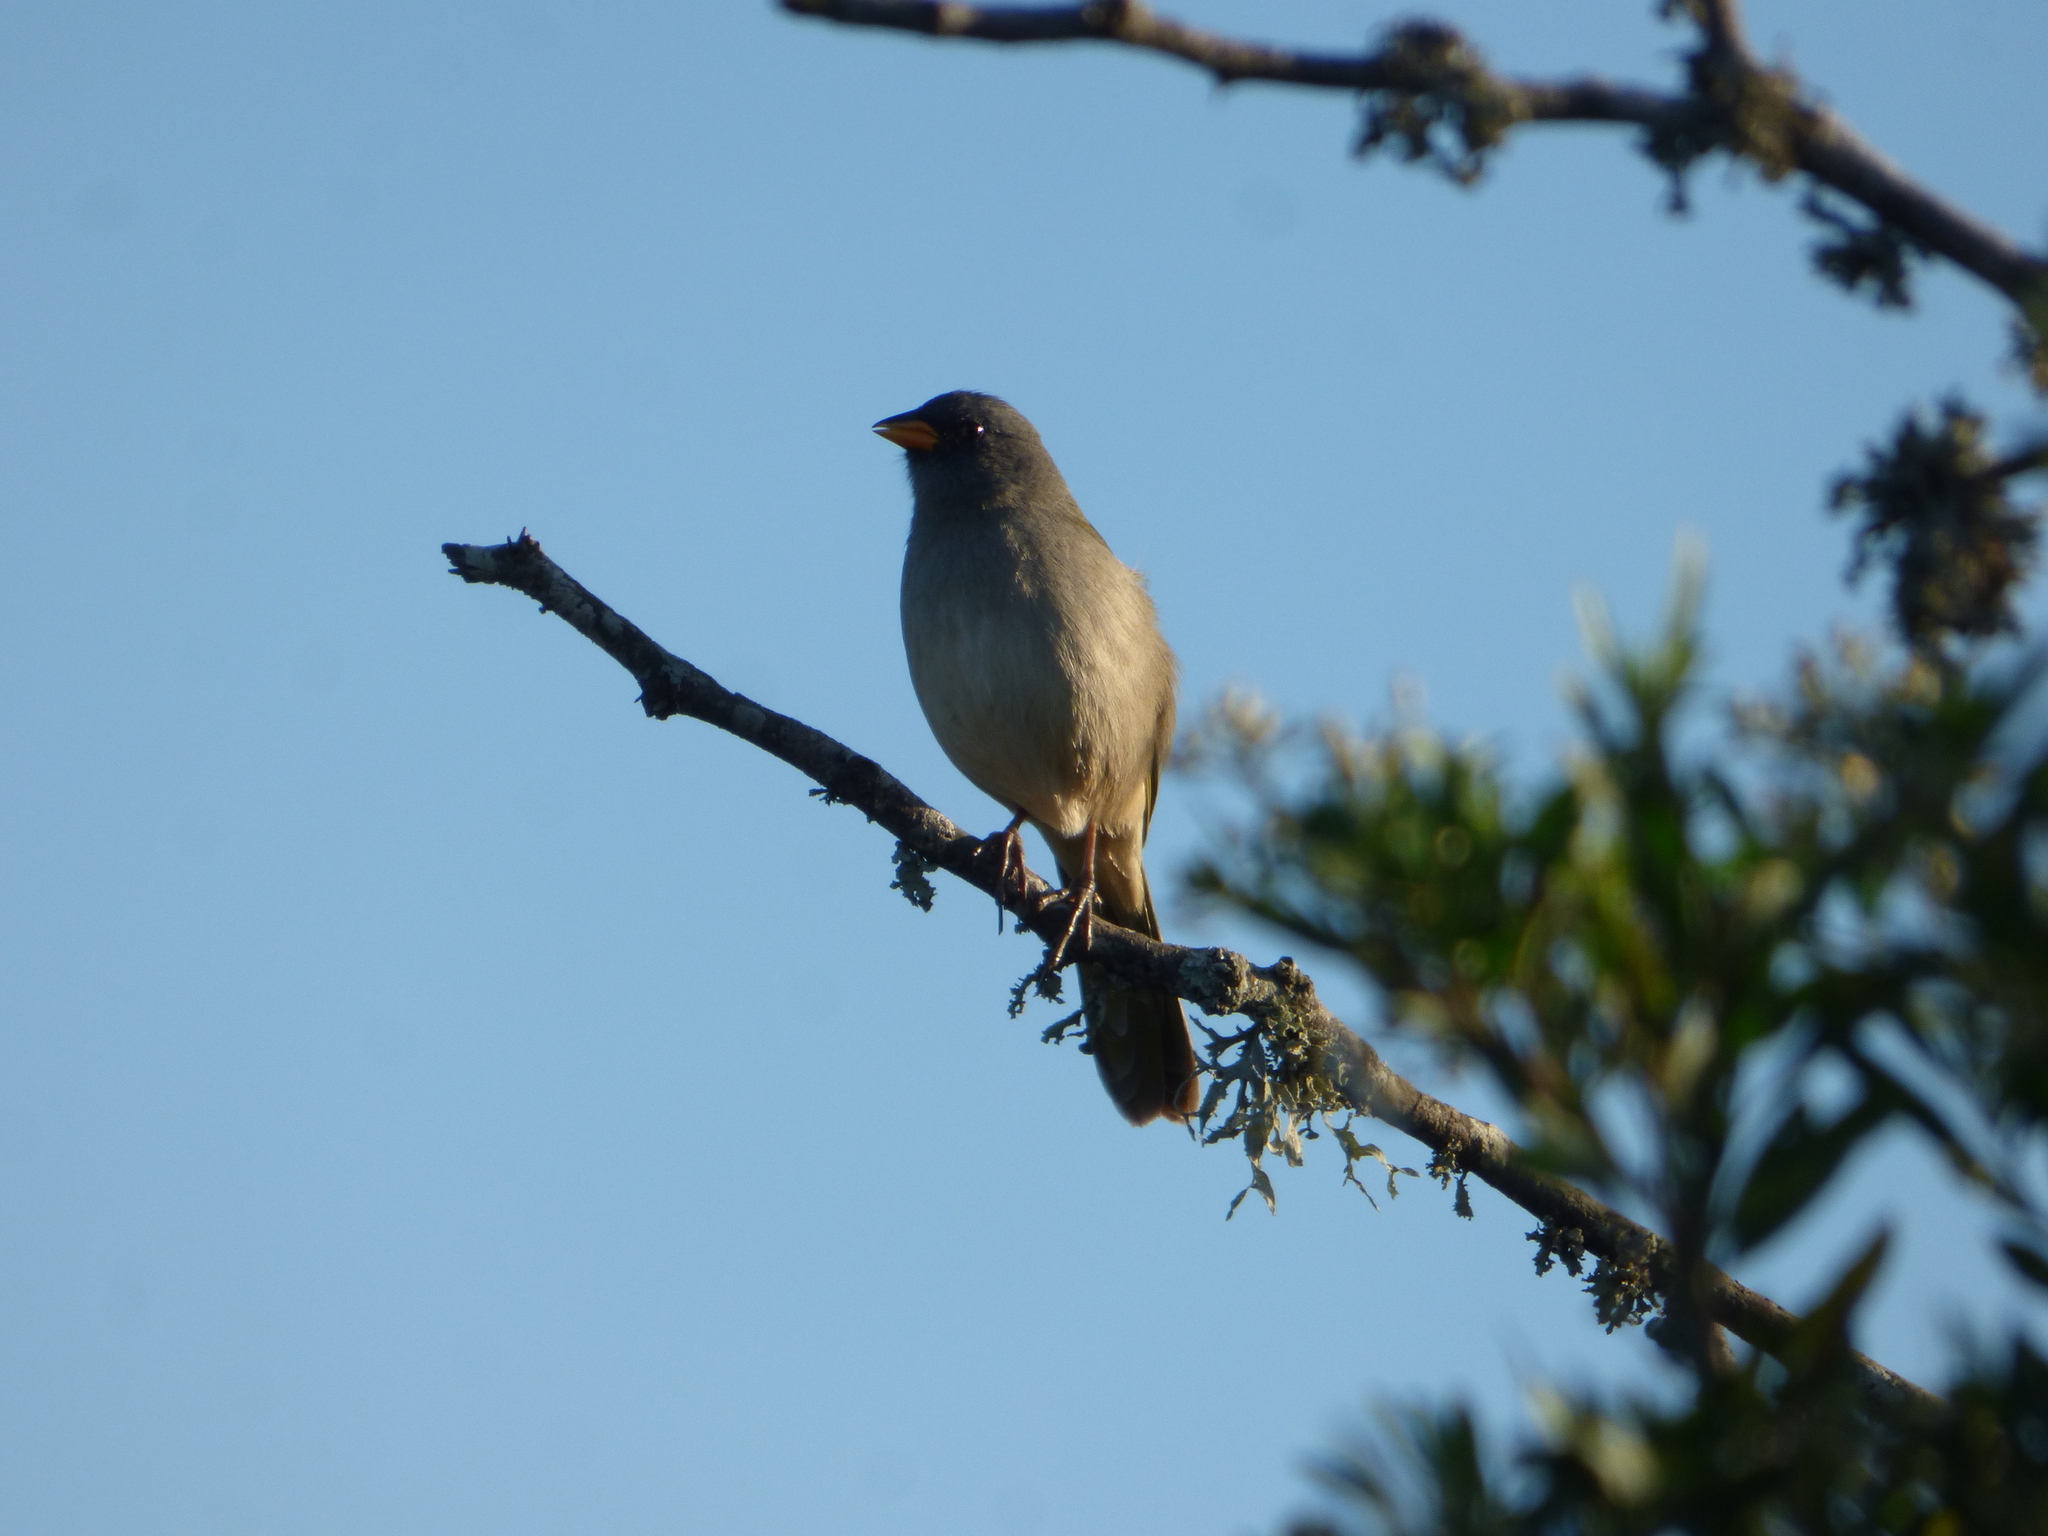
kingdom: Animalia
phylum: Chordata
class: Aves
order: Passeriformes
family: Thraupidae
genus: Embernagra
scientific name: Embernagra platensis
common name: Pampa finch
